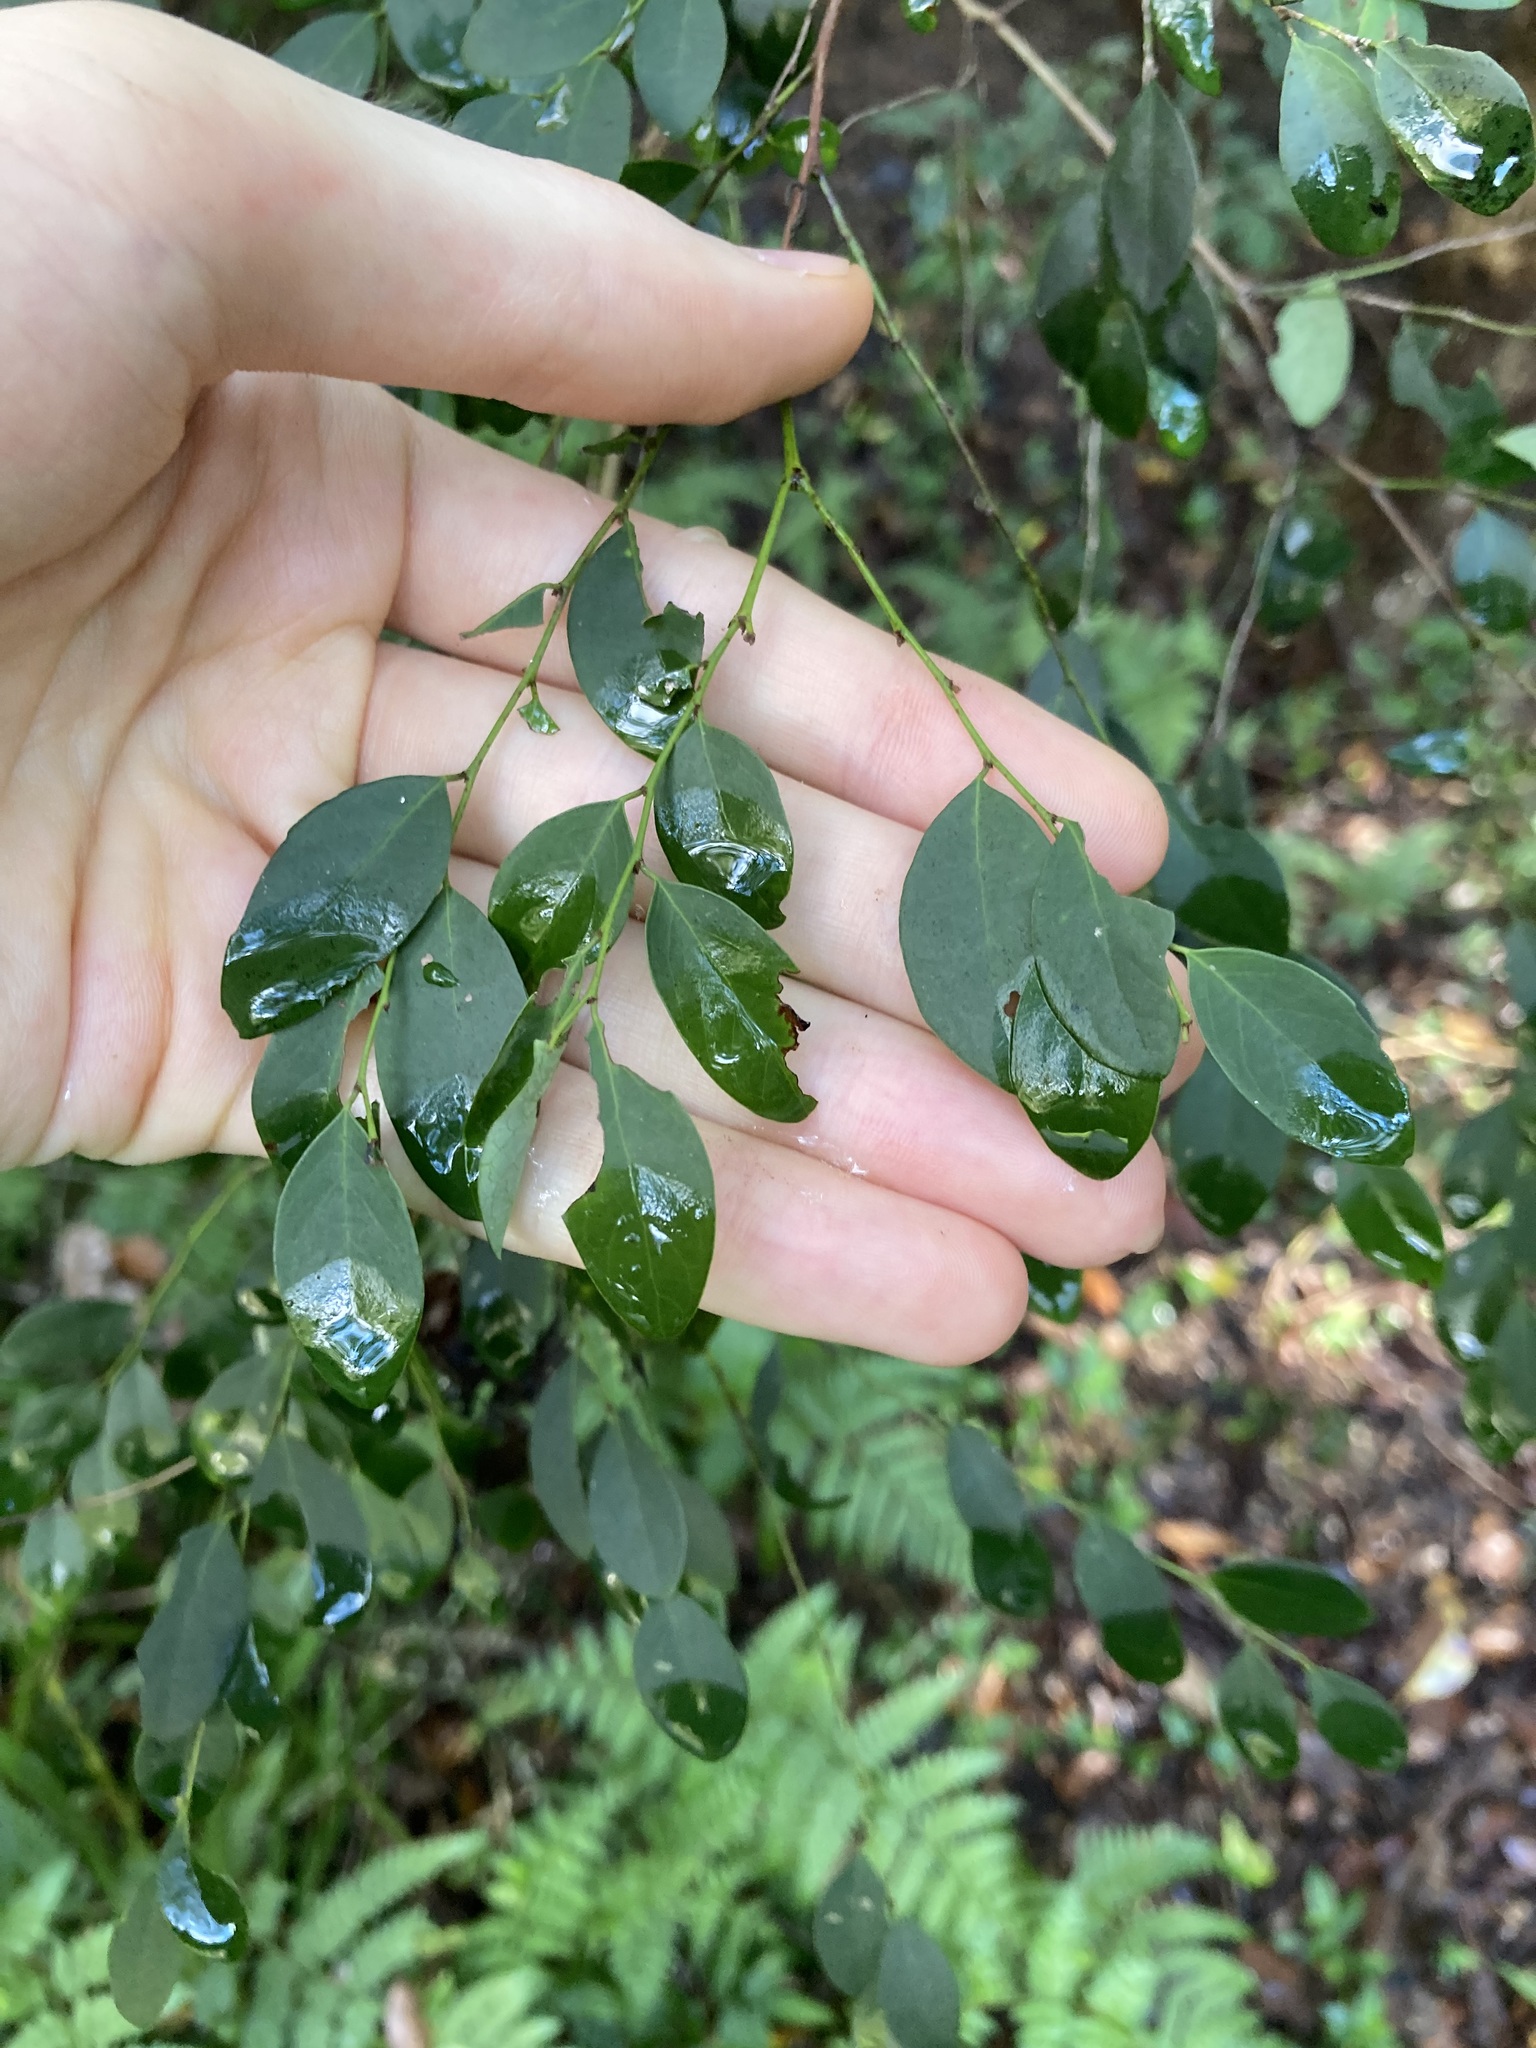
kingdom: Plantae
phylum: Tracheophyta
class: Magnoliopsida
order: Malpighiales
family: Phyllanthaceae
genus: Breynia
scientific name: Breynia oblongifolia
